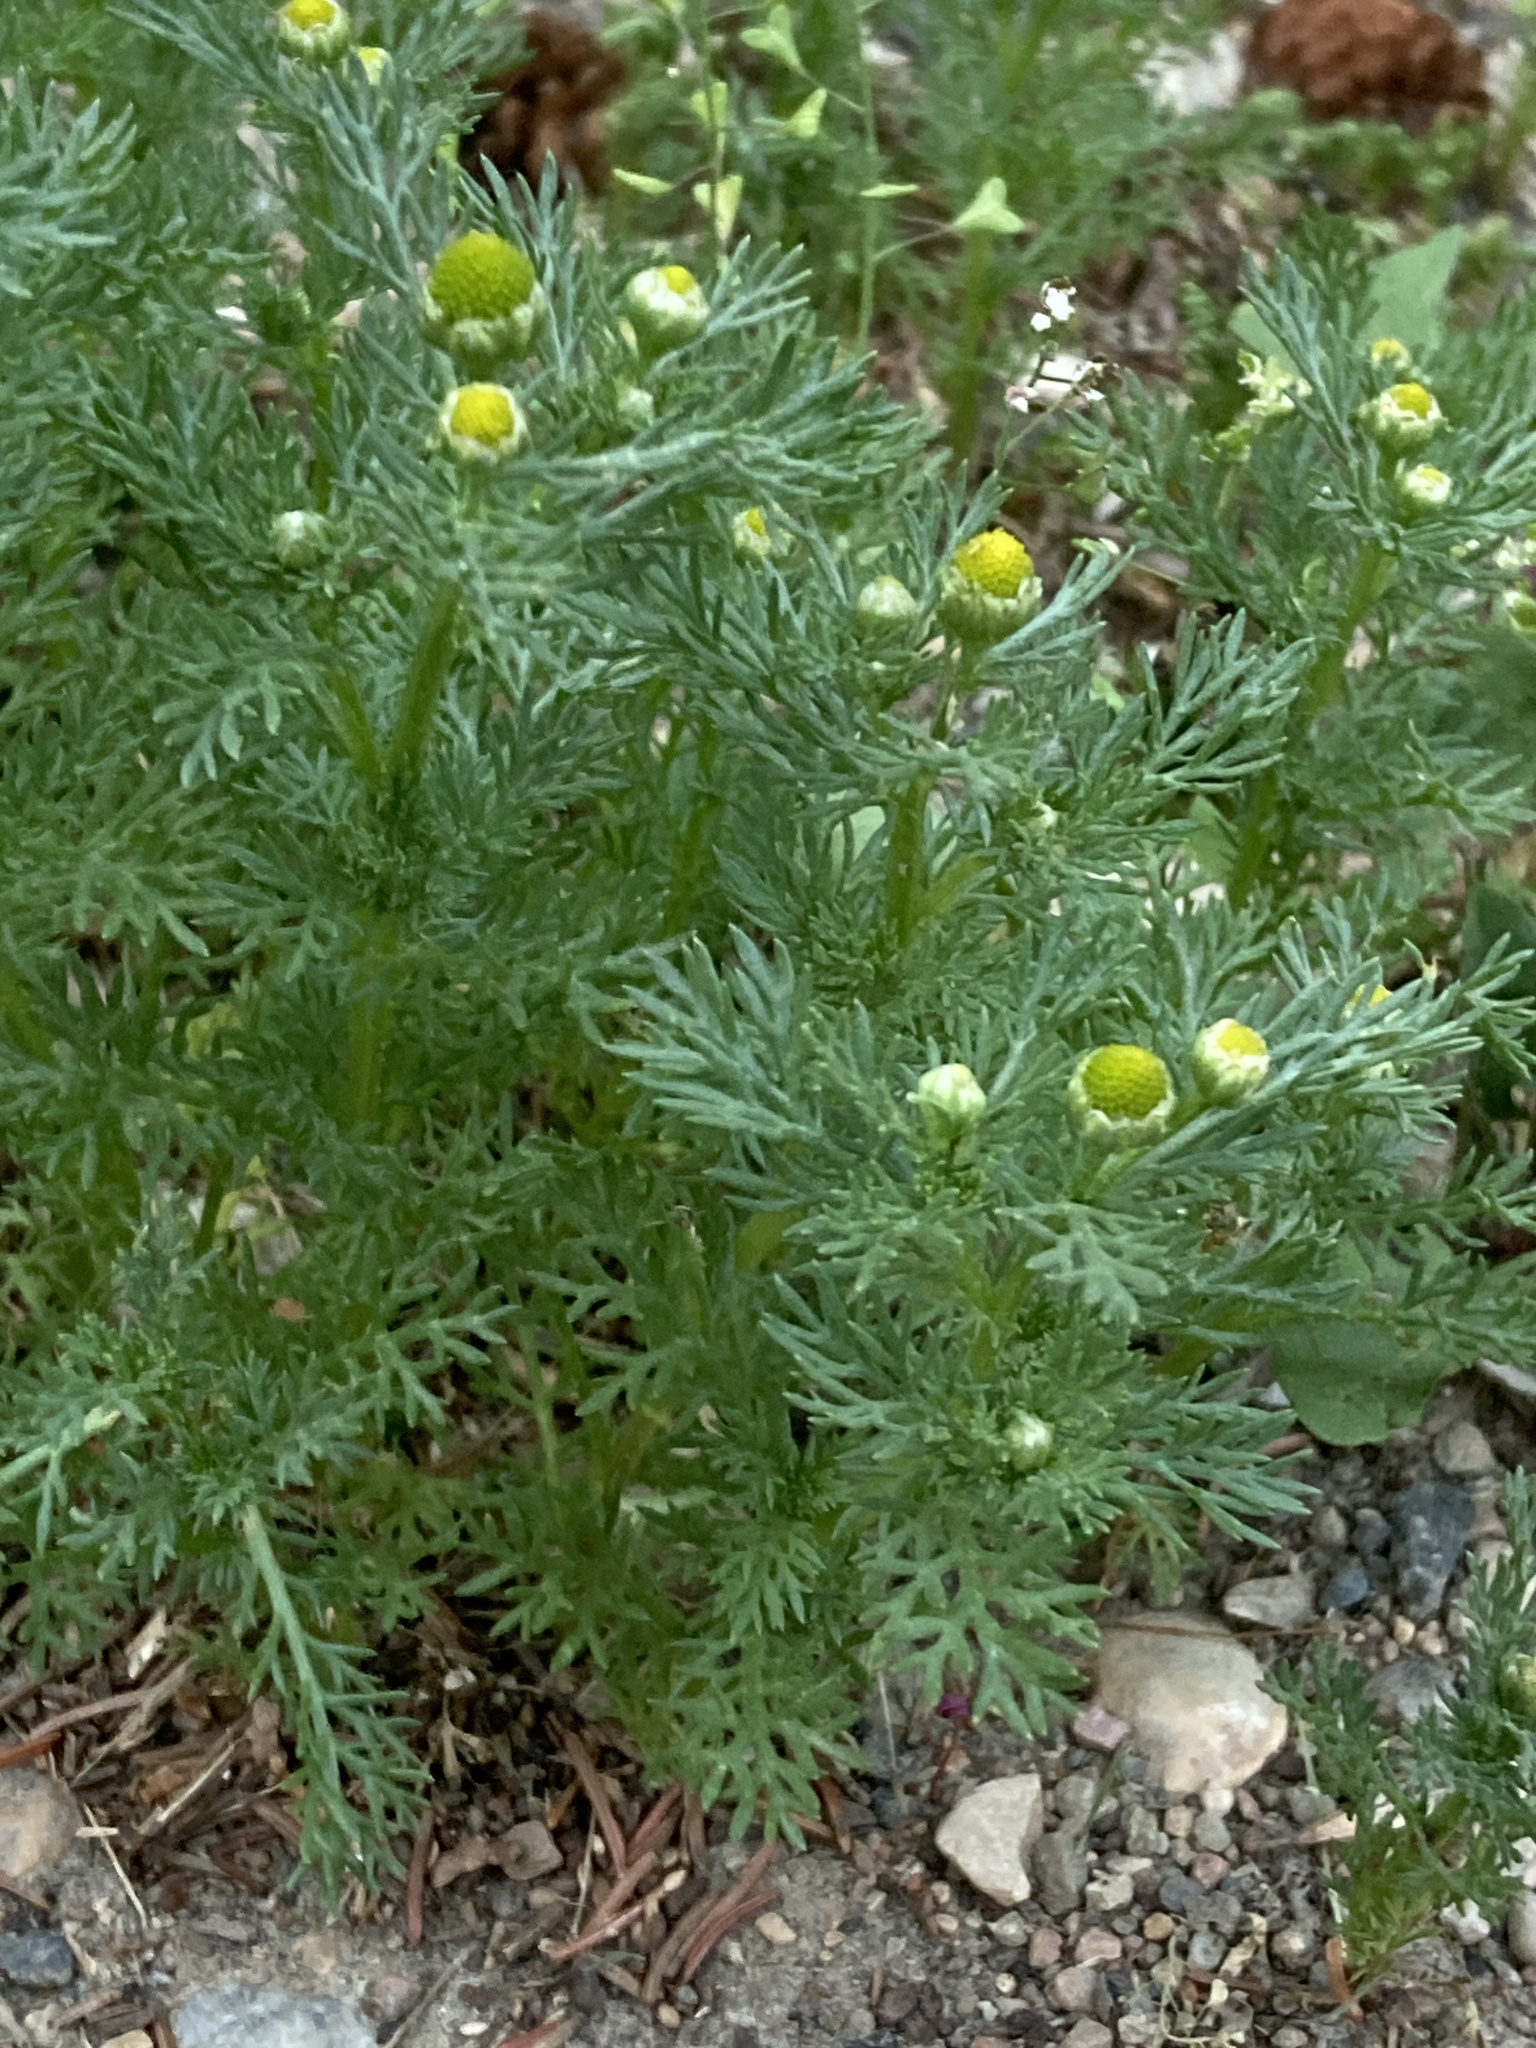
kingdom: Plantae
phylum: Tracheophyta
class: Magnoliopsida
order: Asterales
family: Asteraceae
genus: Matricaria
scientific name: Matricaria discoidea
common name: Disc mayweed
